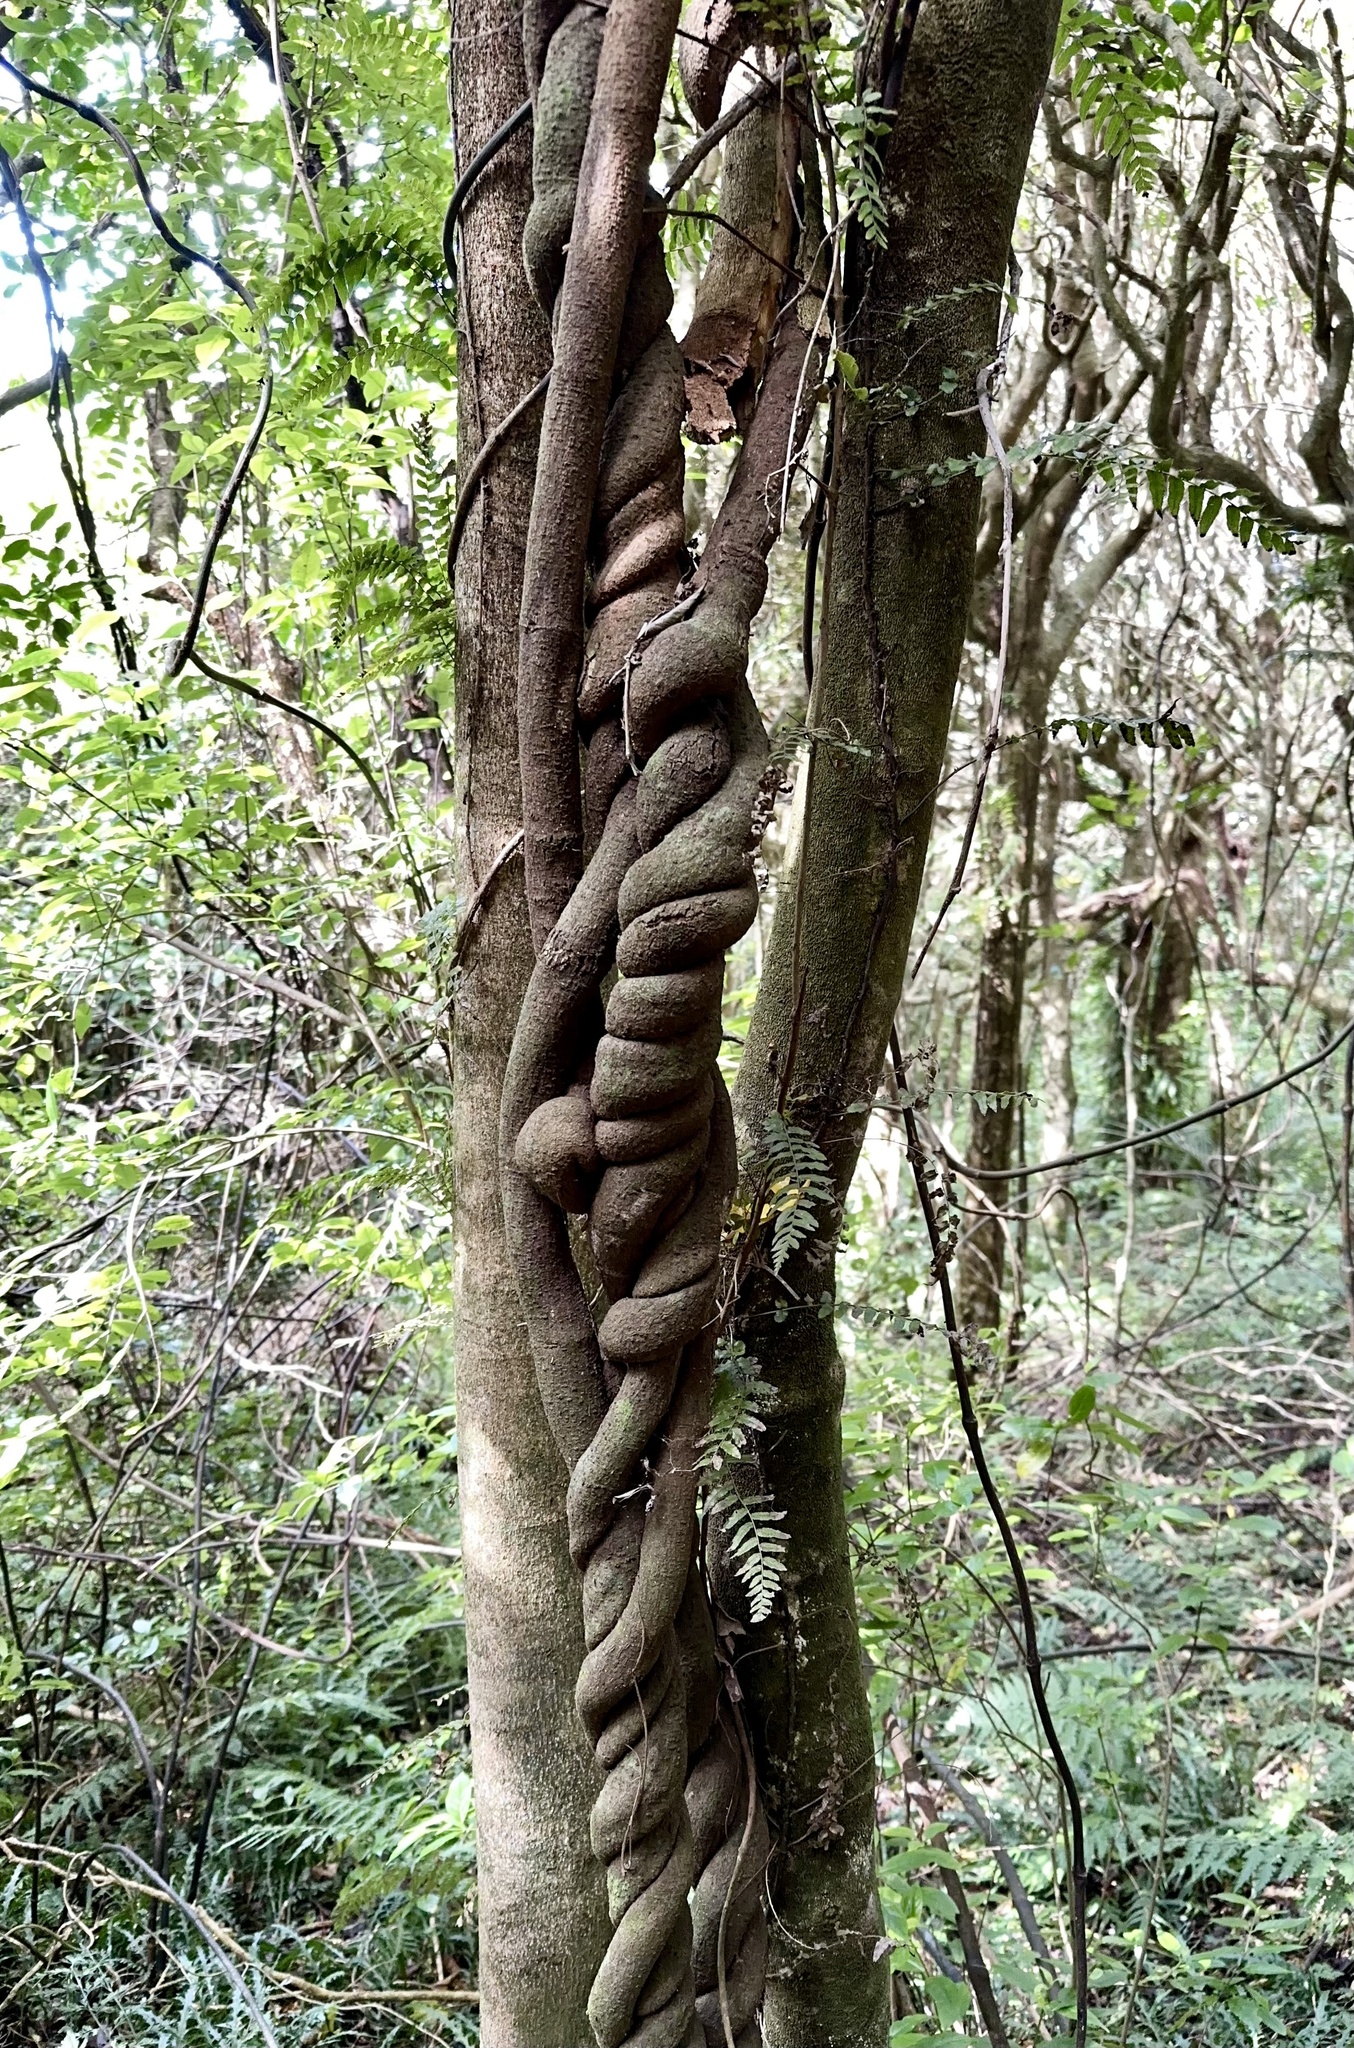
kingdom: Plantae
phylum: Tracheophyta
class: Liliopsida
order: Liliales
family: Ripogonaceae
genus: Ripogonum
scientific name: Ripogonum scandens
